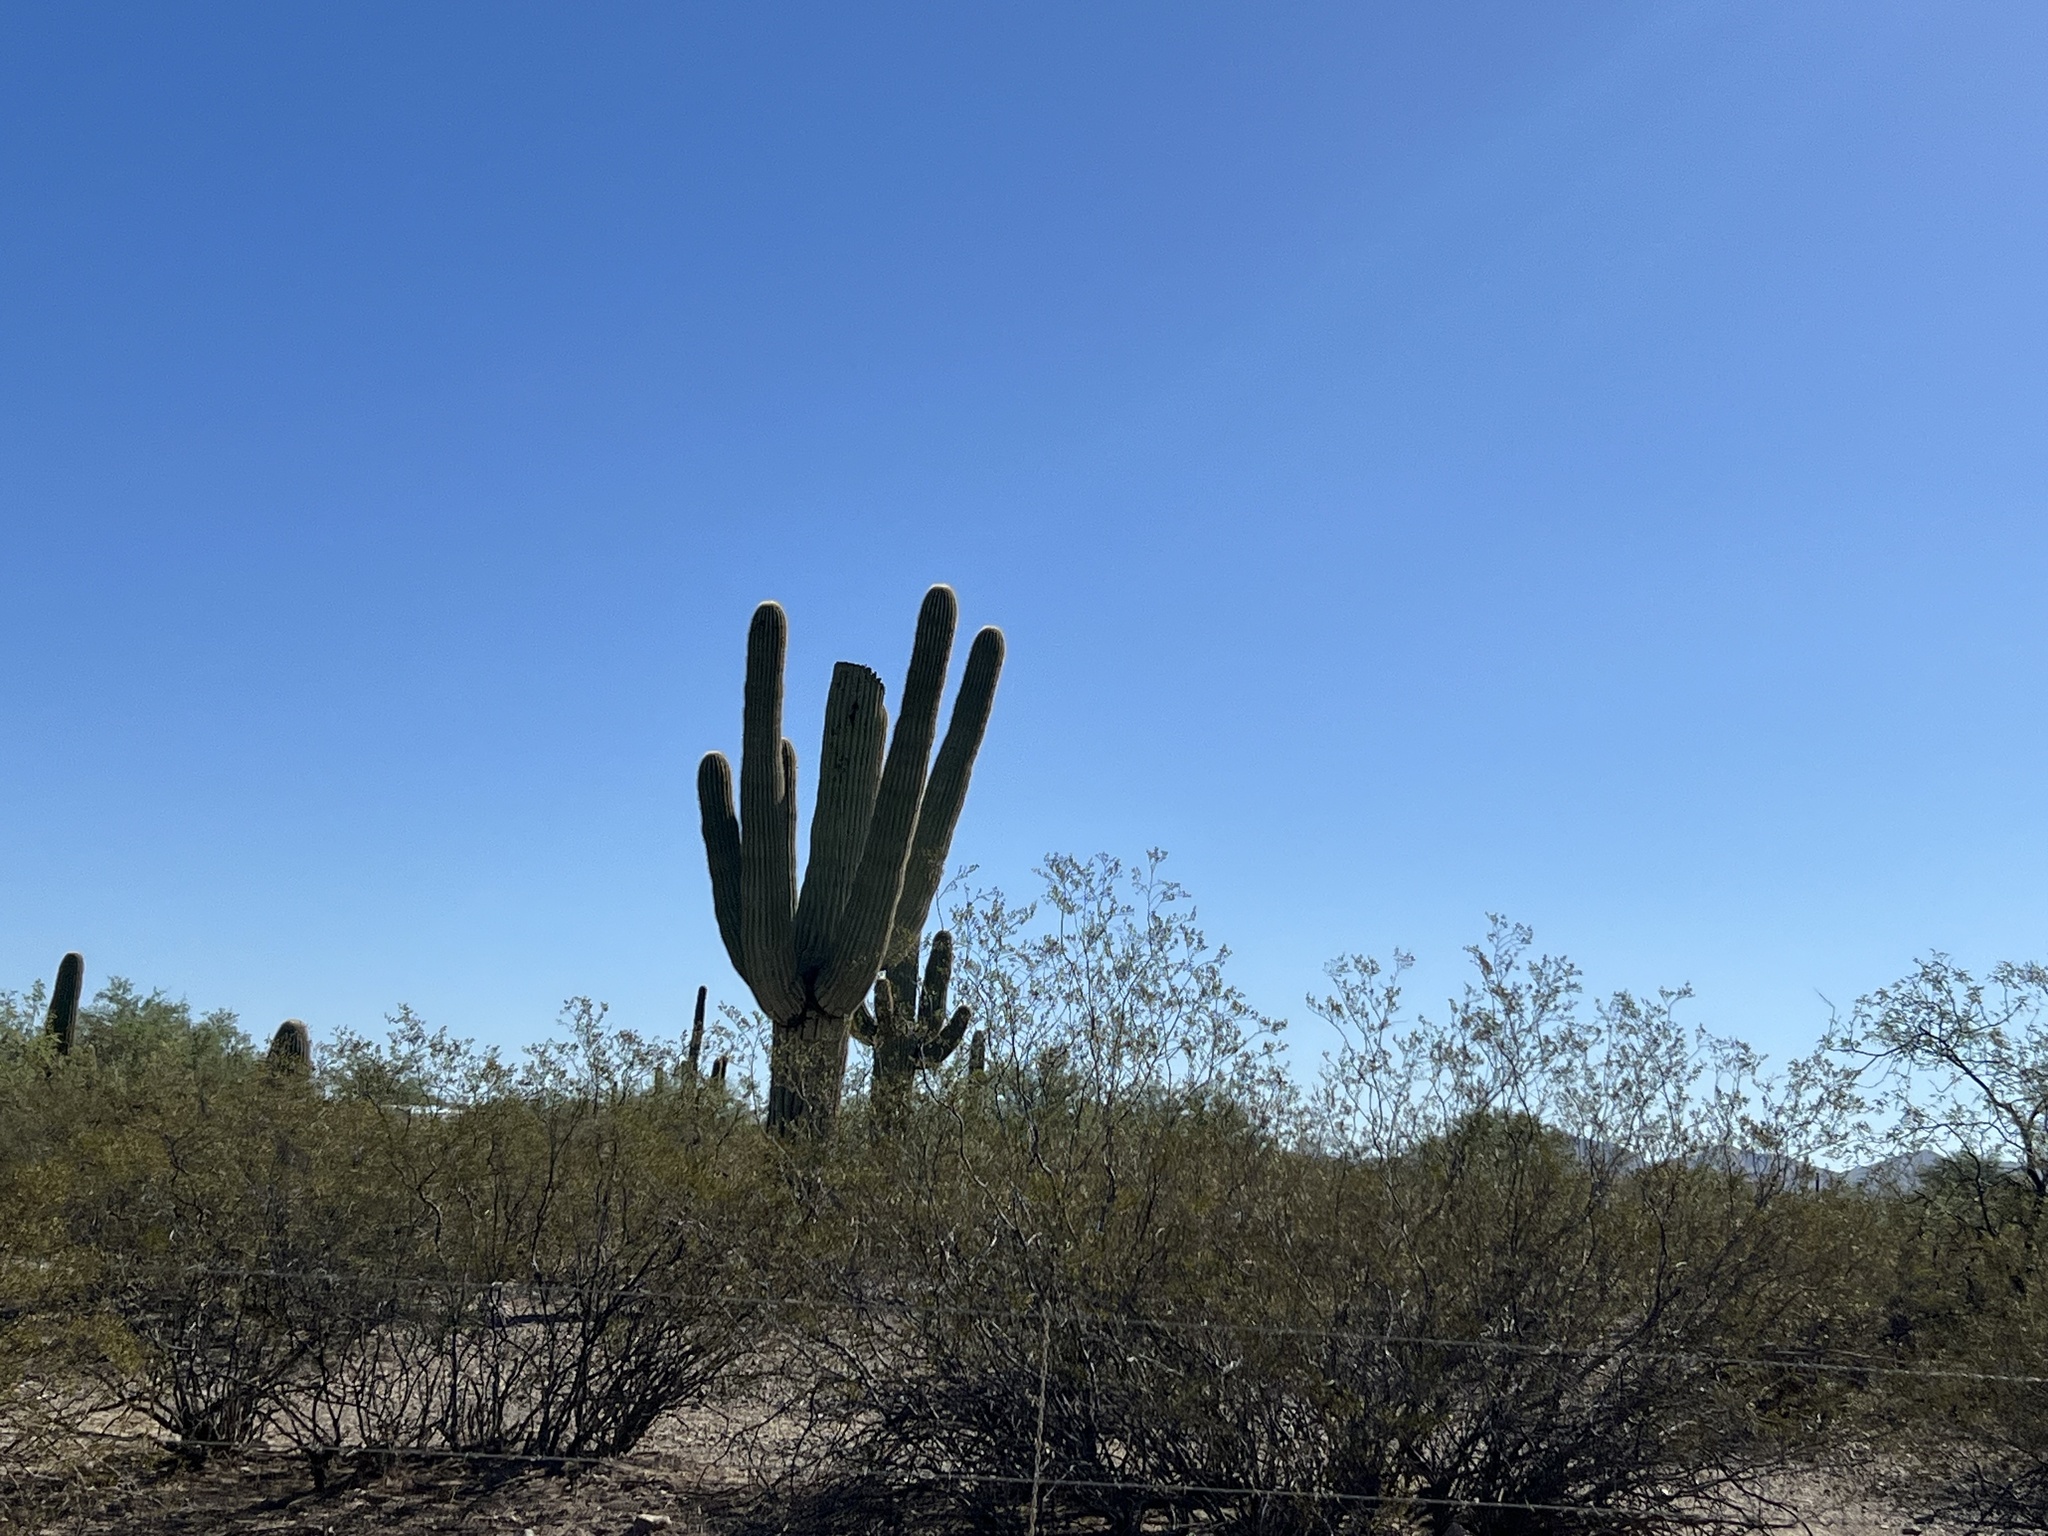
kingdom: Plantae
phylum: Tracheophyta
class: Magnoliopsida
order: Caryophyllales
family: Cactaceae
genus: Carnegiea
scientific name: Carnegiea gigantea
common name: Saguaro
